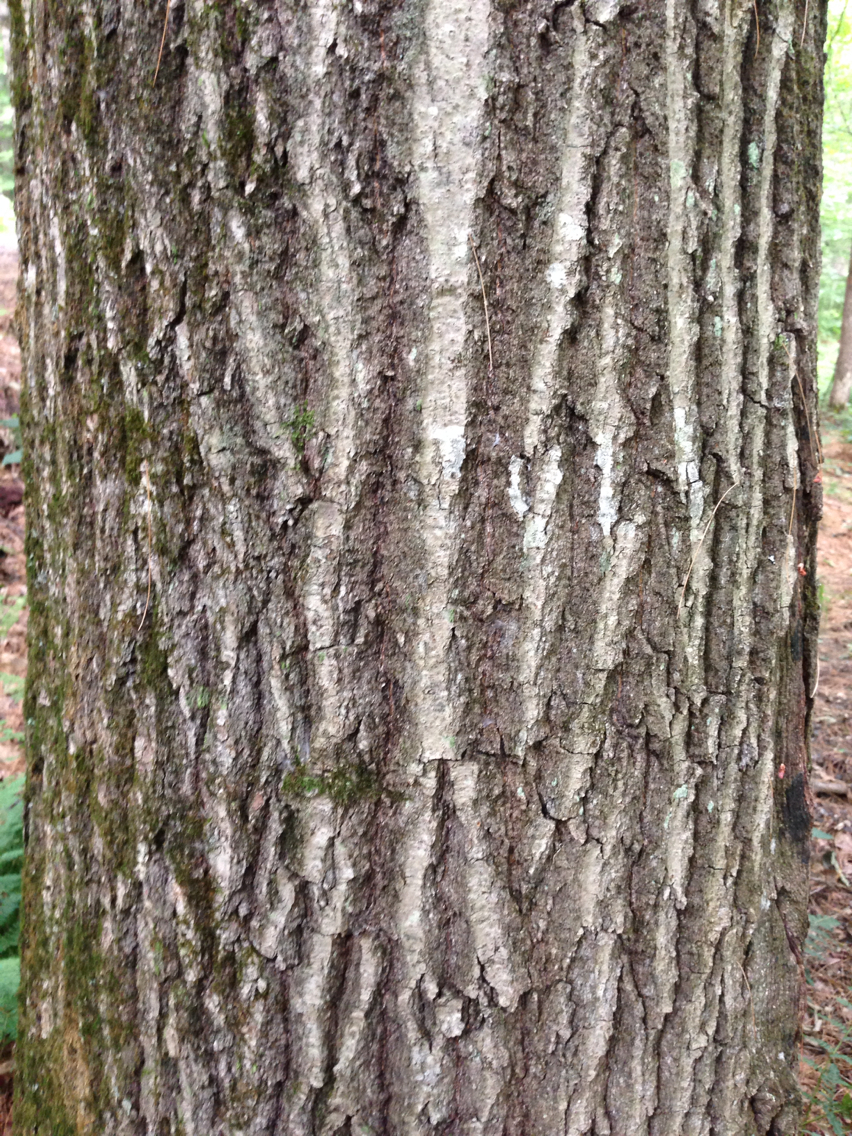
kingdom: Plantae
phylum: Tracheophyta
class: Magnoliopsida
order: Fagales
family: Fagaceae
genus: Quercus
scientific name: Quercus rubra
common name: Red oak
